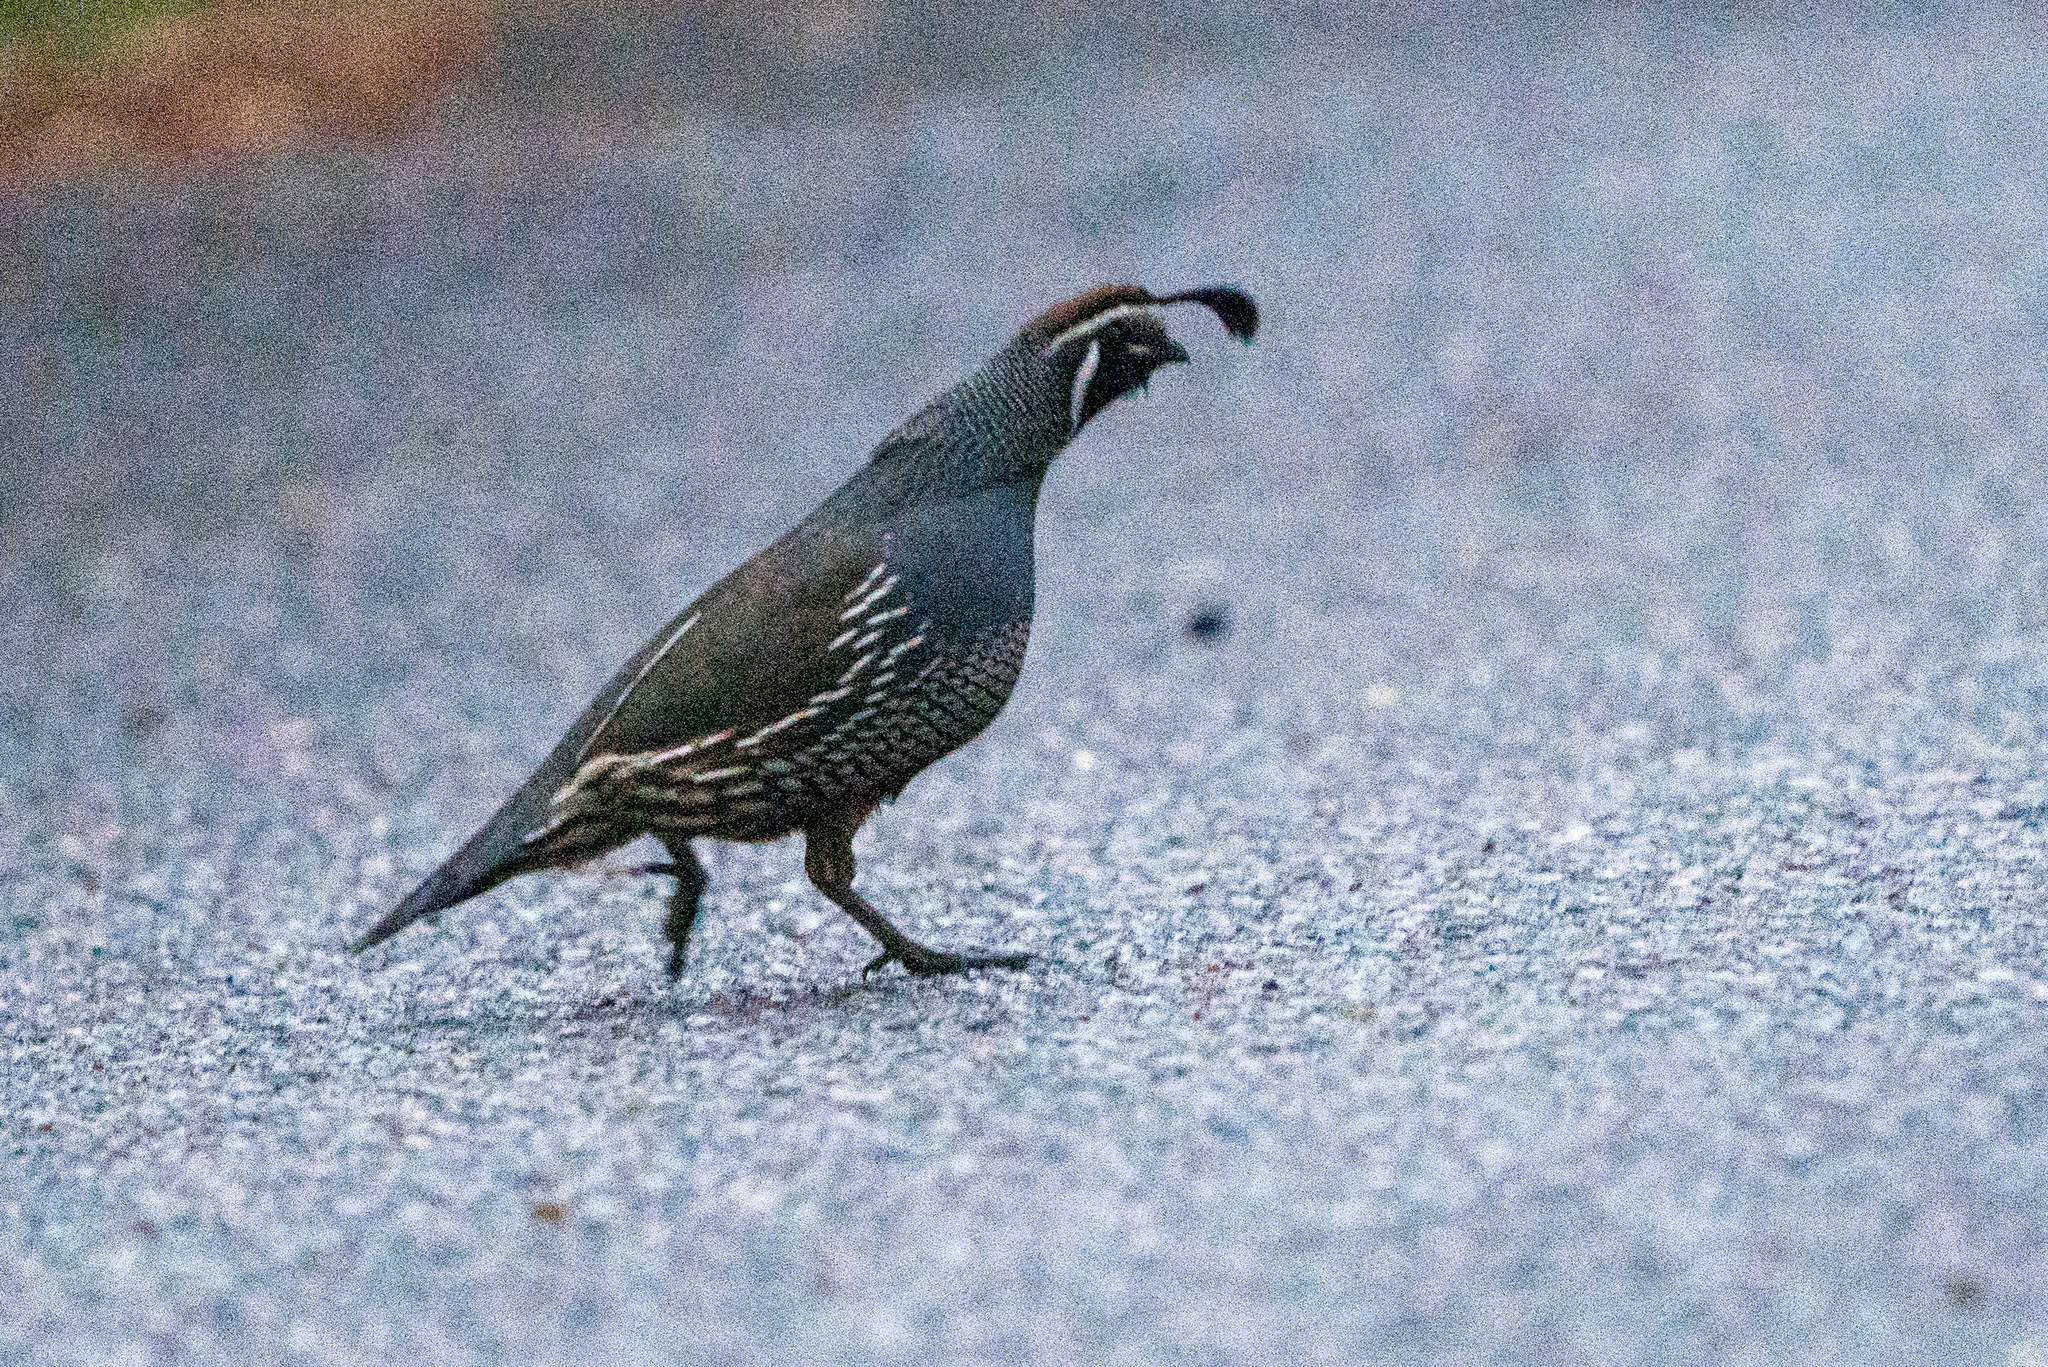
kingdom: Animalia
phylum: Chordata
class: Aves
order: Galliformes
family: Odontophoridae
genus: Callipepla
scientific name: Callipepla californica
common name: California quail
